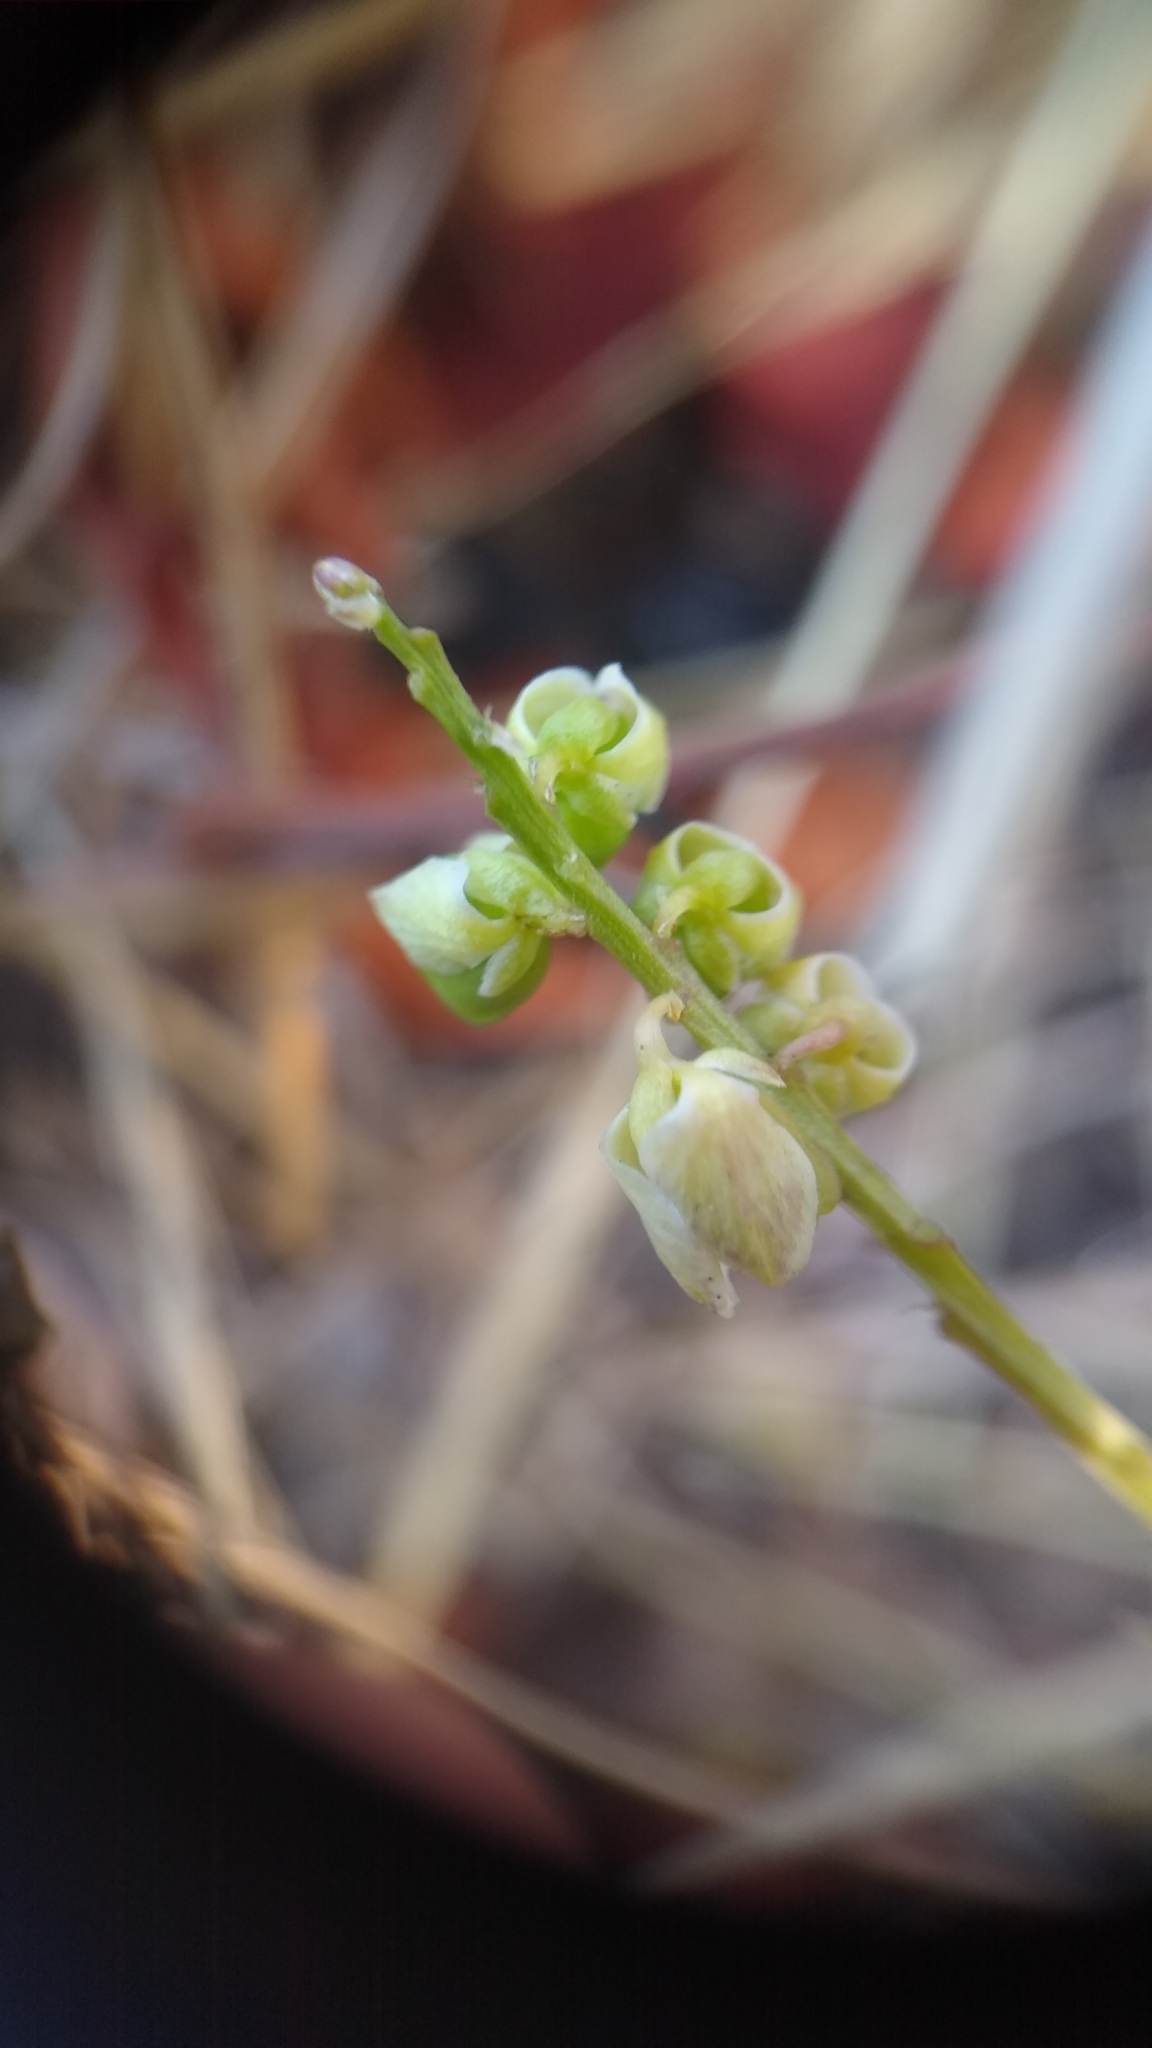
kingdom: Plantae
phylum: Tracheophyta
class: Magnoliopsida
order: Fabales
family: Polygalaceae
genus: Polygala
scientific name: Polygala polygama
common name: Bitter milkwort
